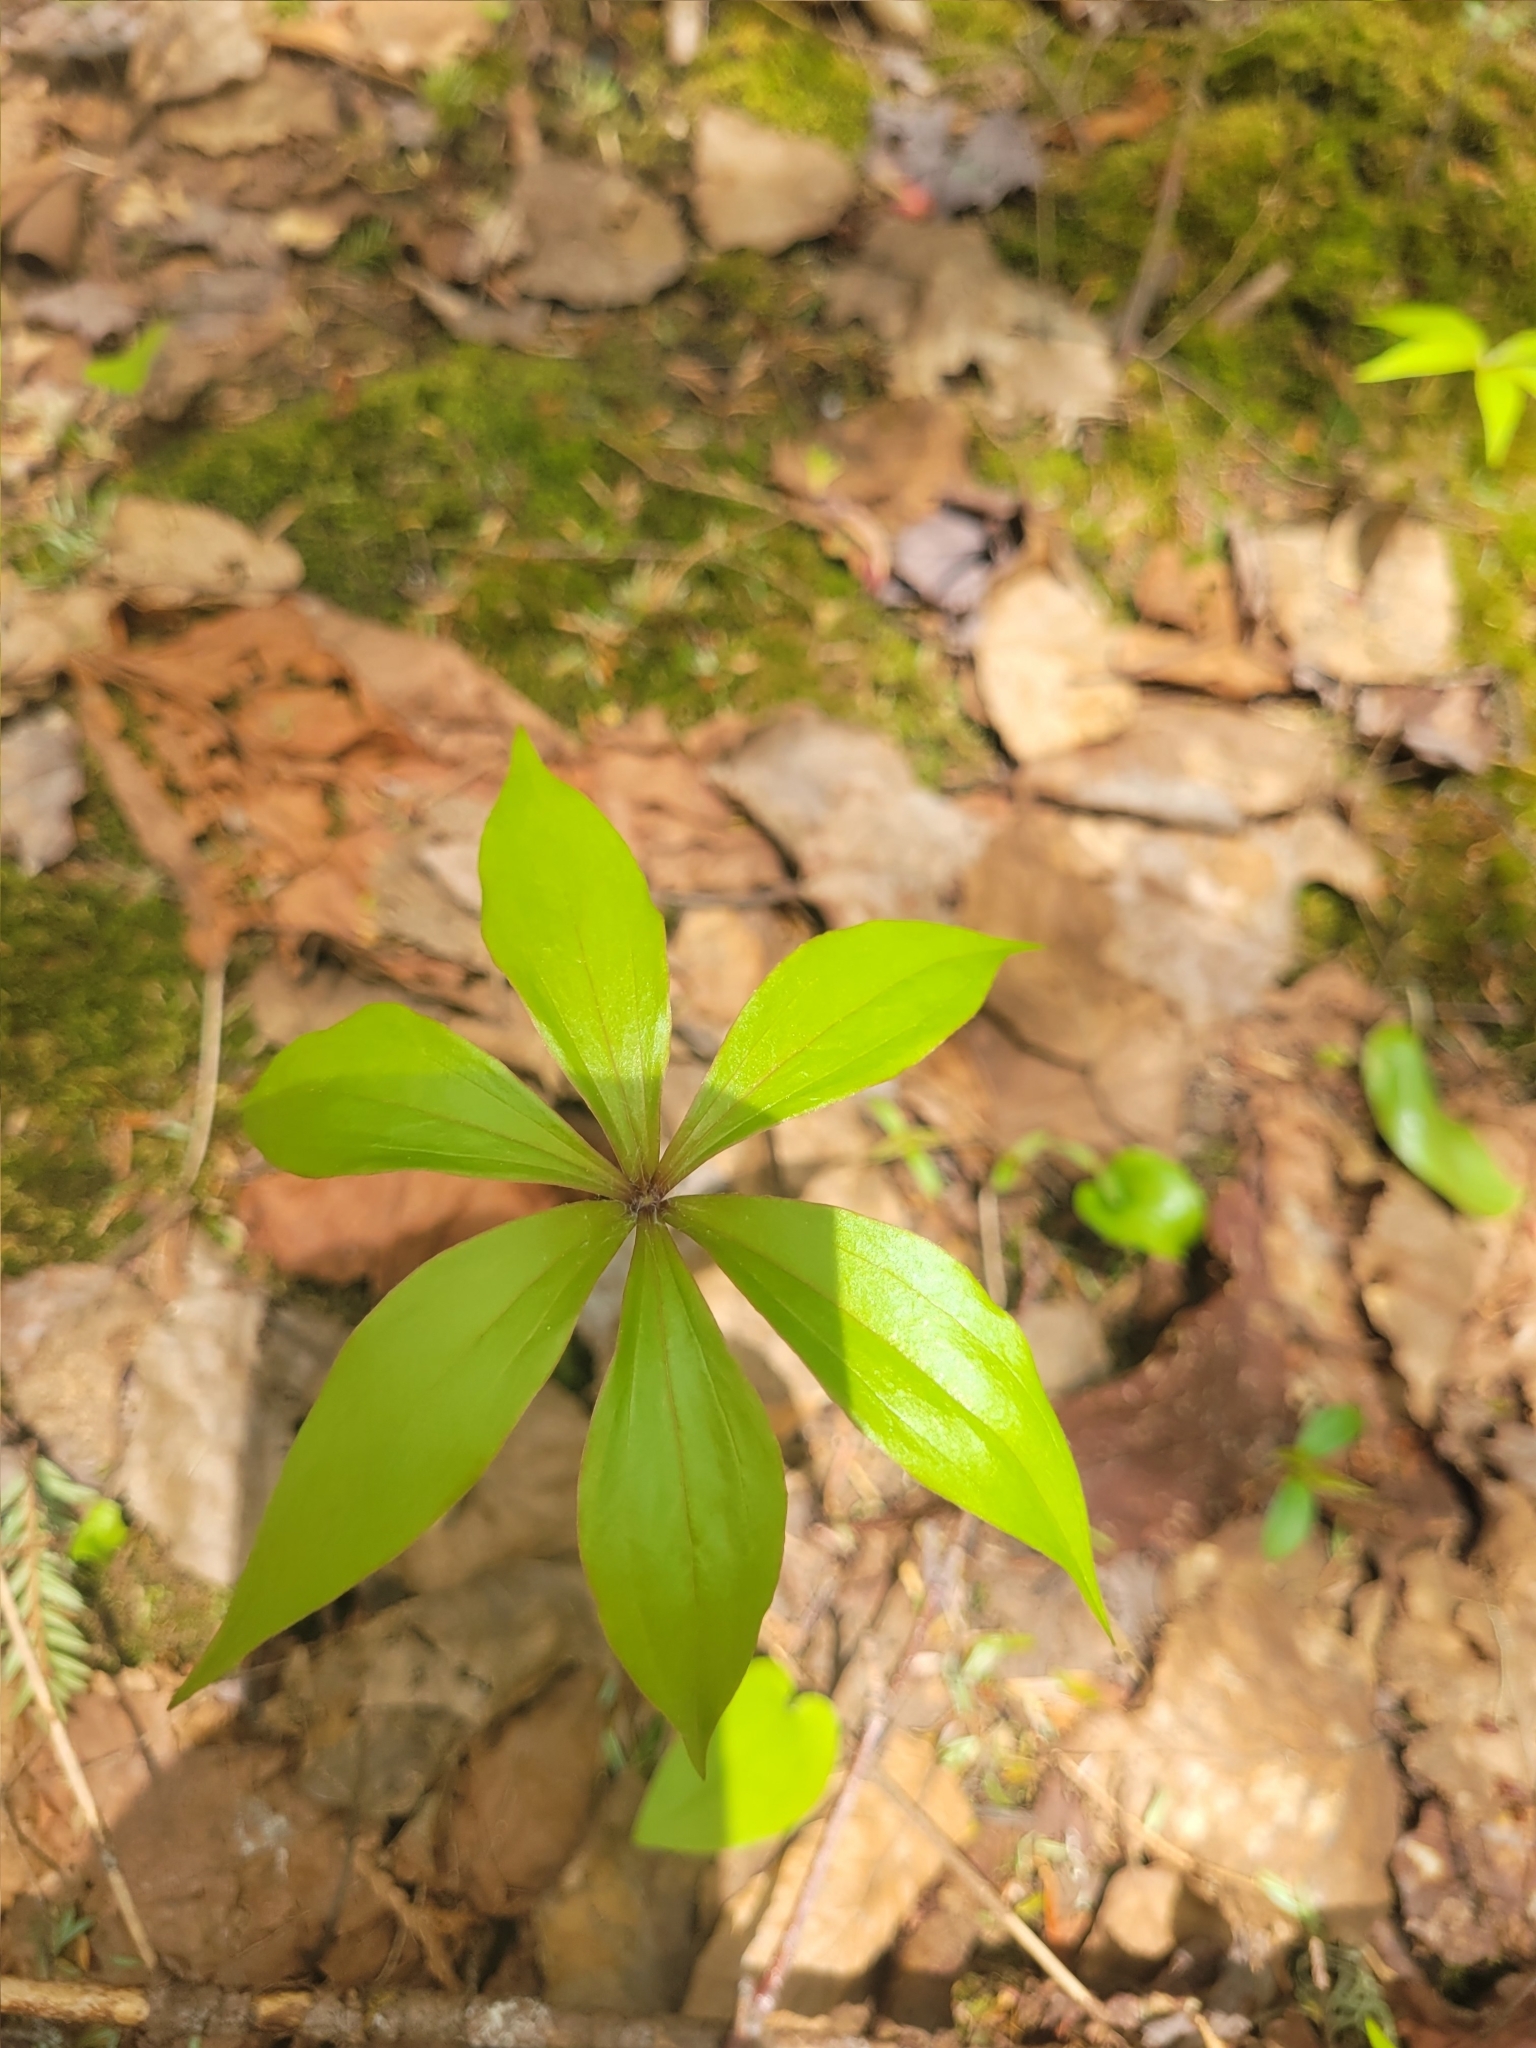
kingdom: Plantae
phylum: Tracheophyta
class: Liliopsida
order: Liliales
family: Liliaceae
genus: Medeola
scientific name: Medeola virginiana
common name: Indian cucumber-root
